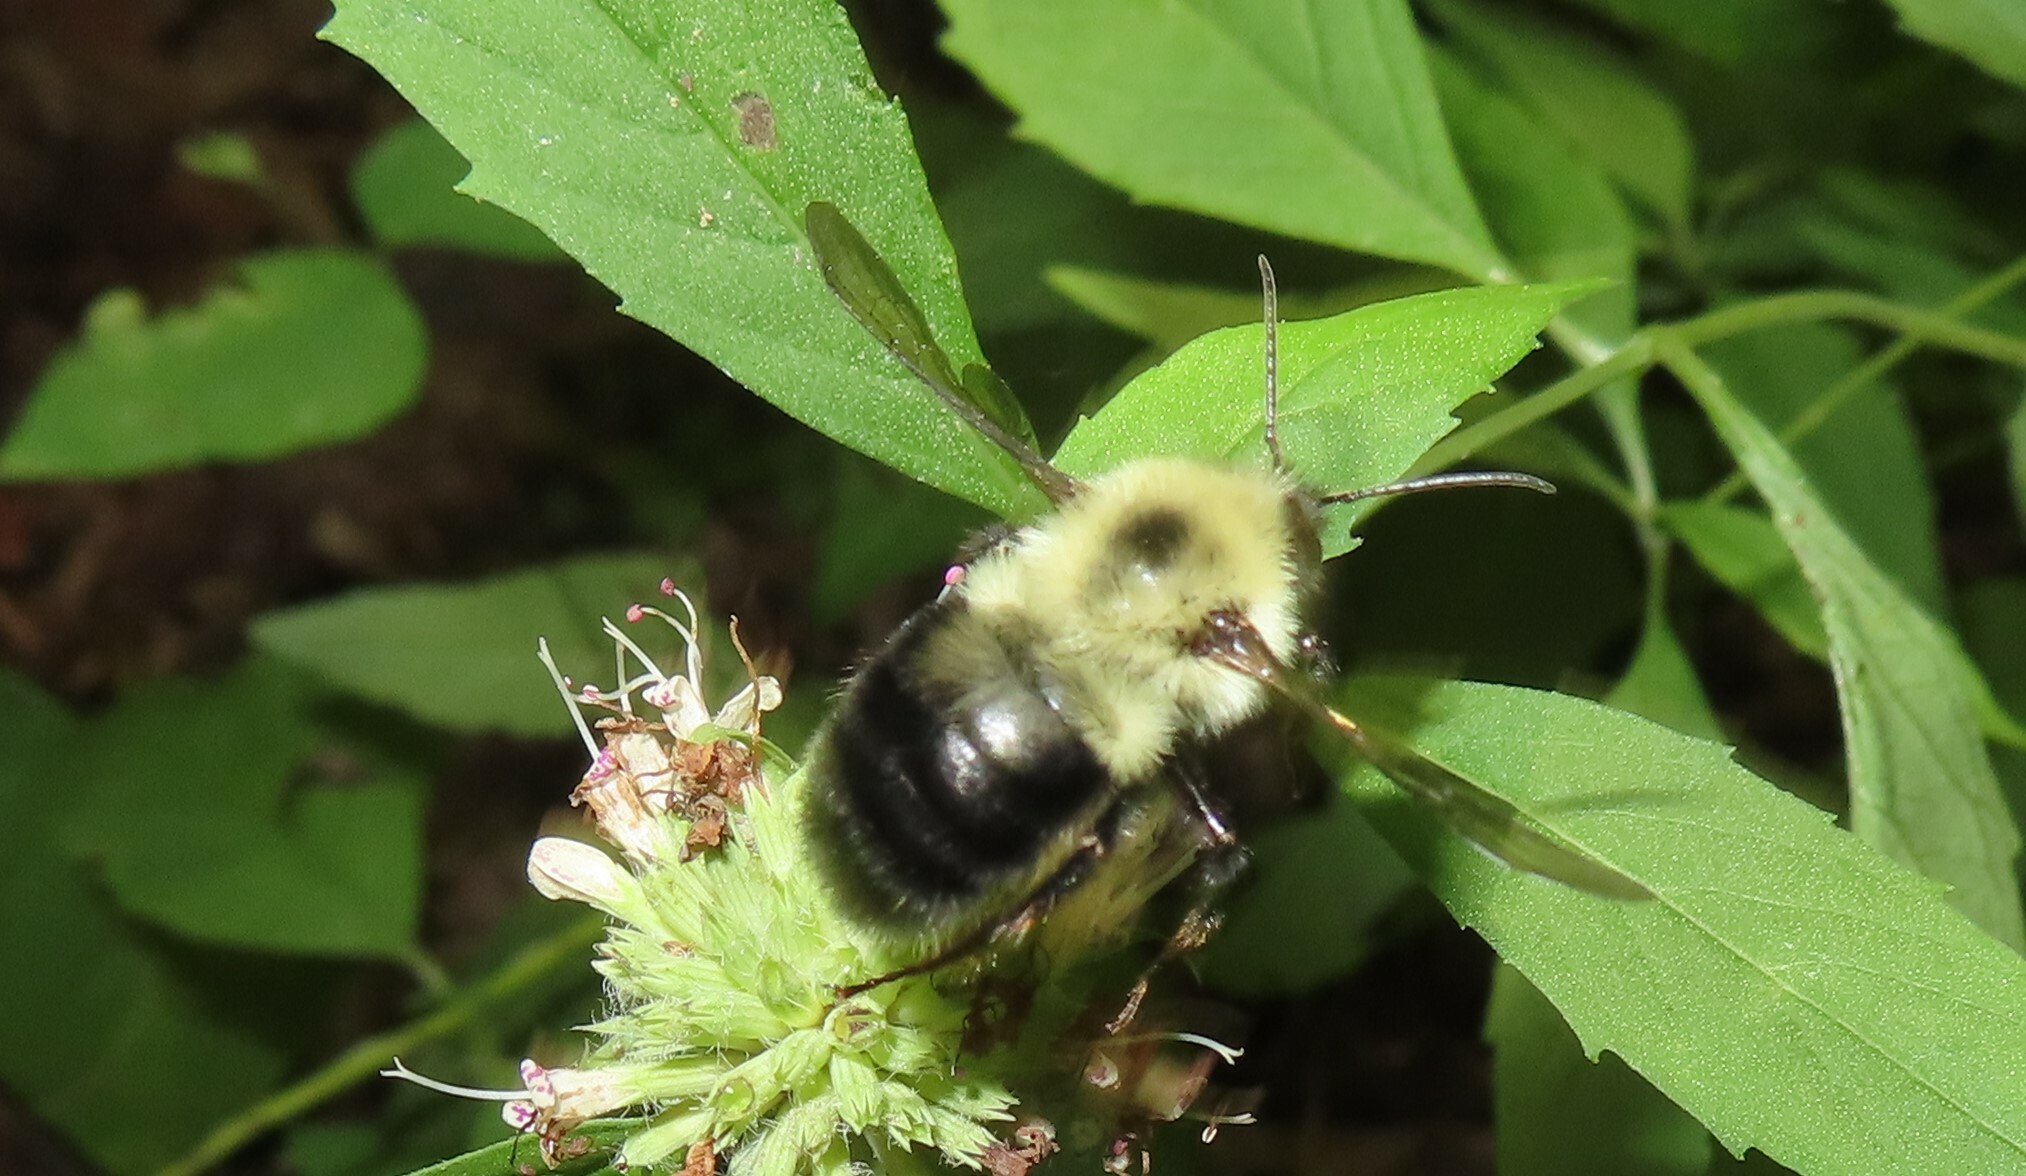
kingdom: Animalia
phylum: Arthropoda
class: Insecta
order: Hymenoptera
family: Apidae
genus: Bombus
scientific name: Bombus bimaculatus
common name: Two-spotted bumble bee
